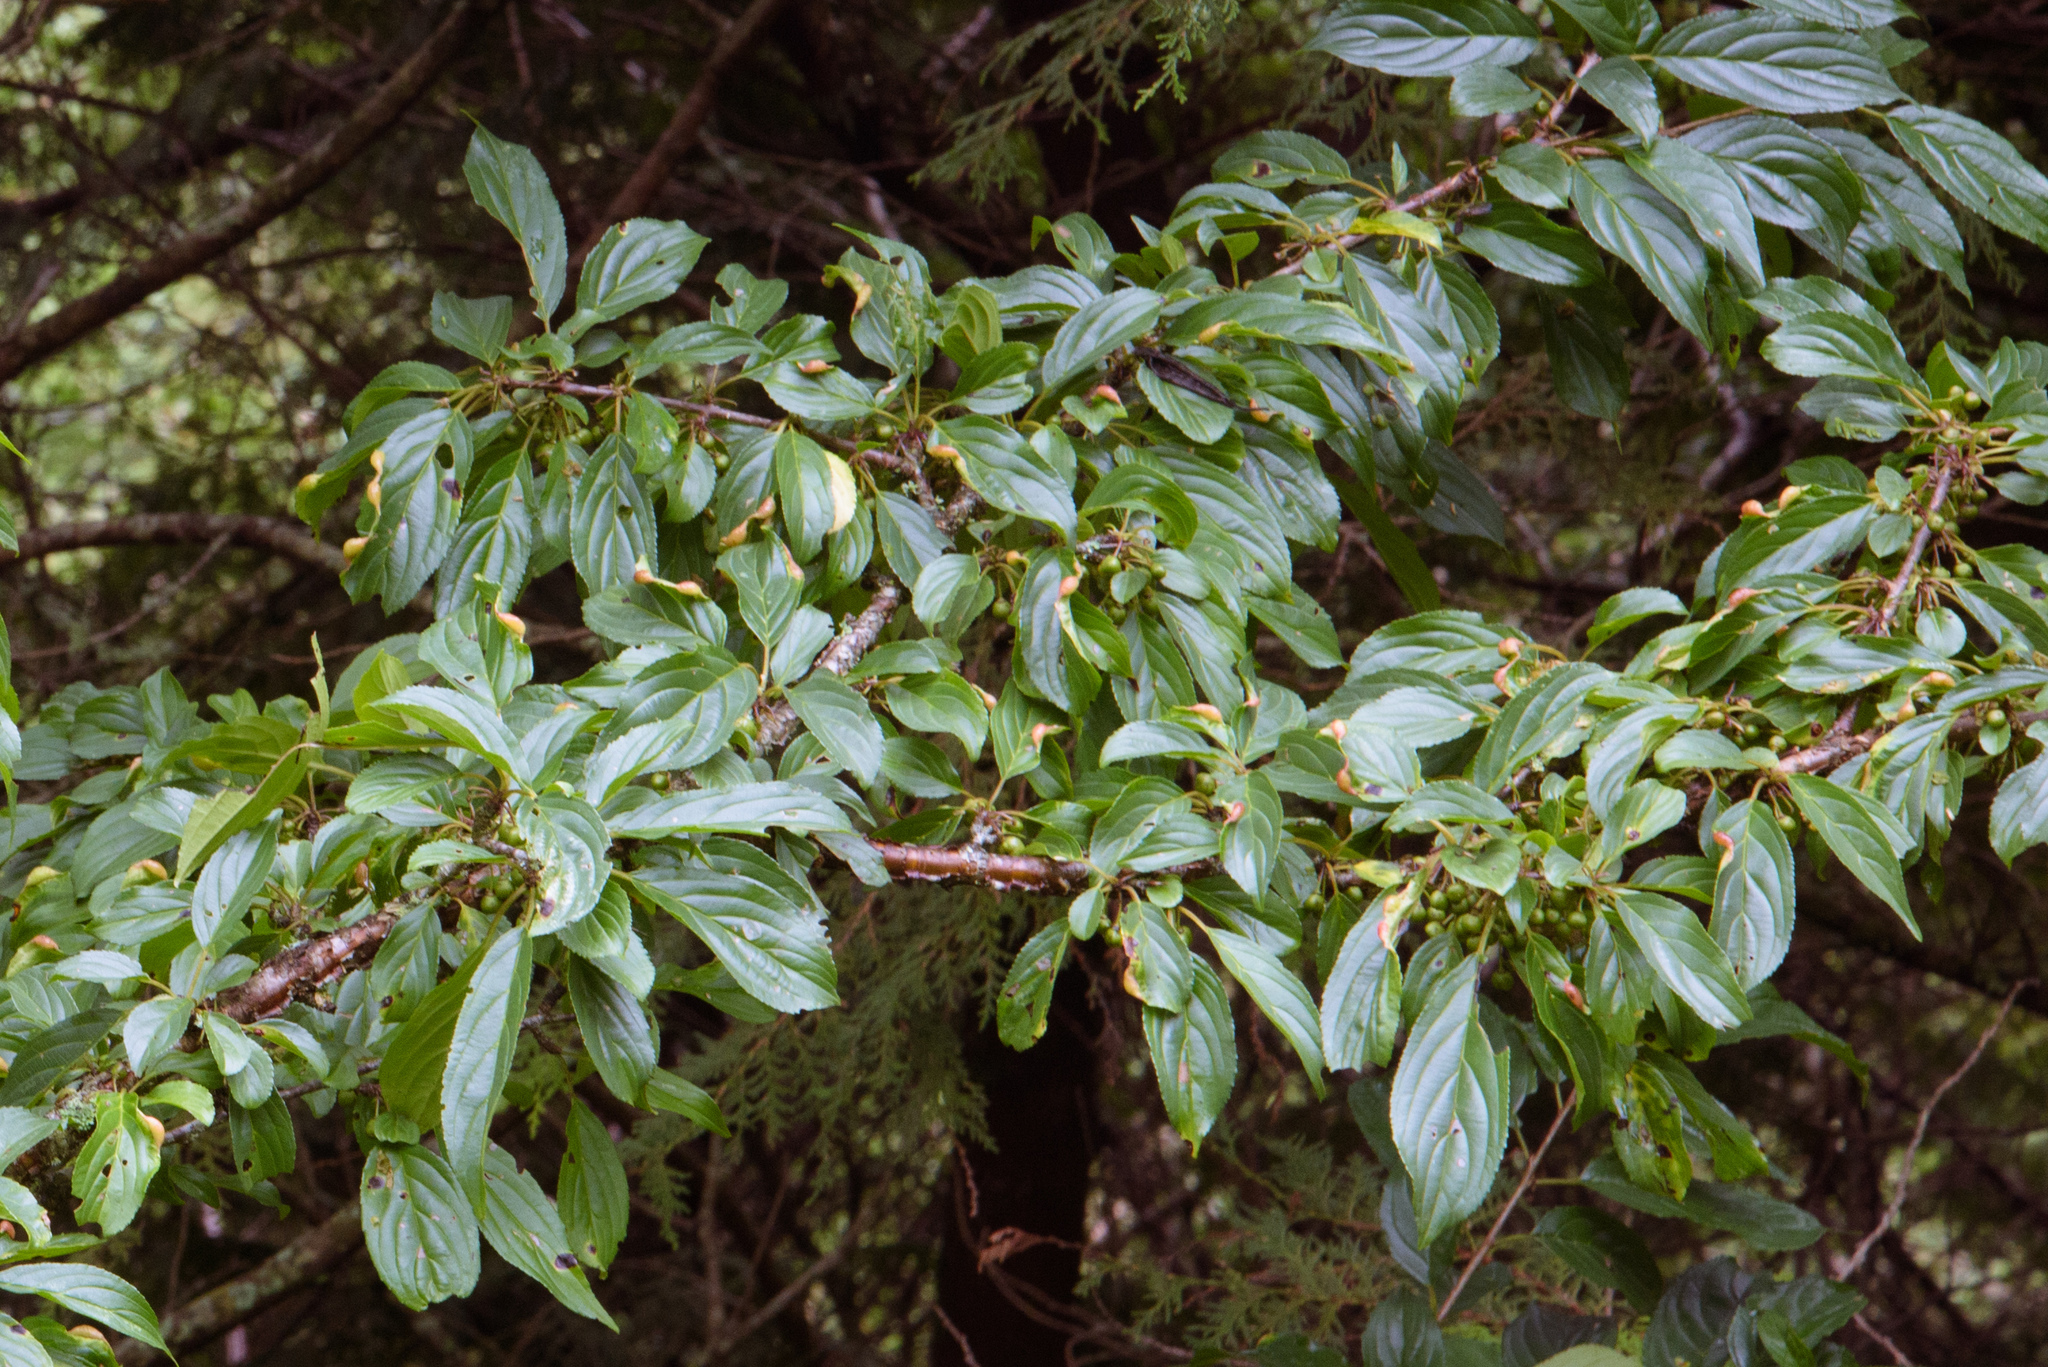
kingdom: Plantae
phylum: Tracheophyta
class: Magnoliopsida
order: Rosales
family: Rhamnaceae
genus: Rhamnus
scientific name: Rhamnus nakaharae
